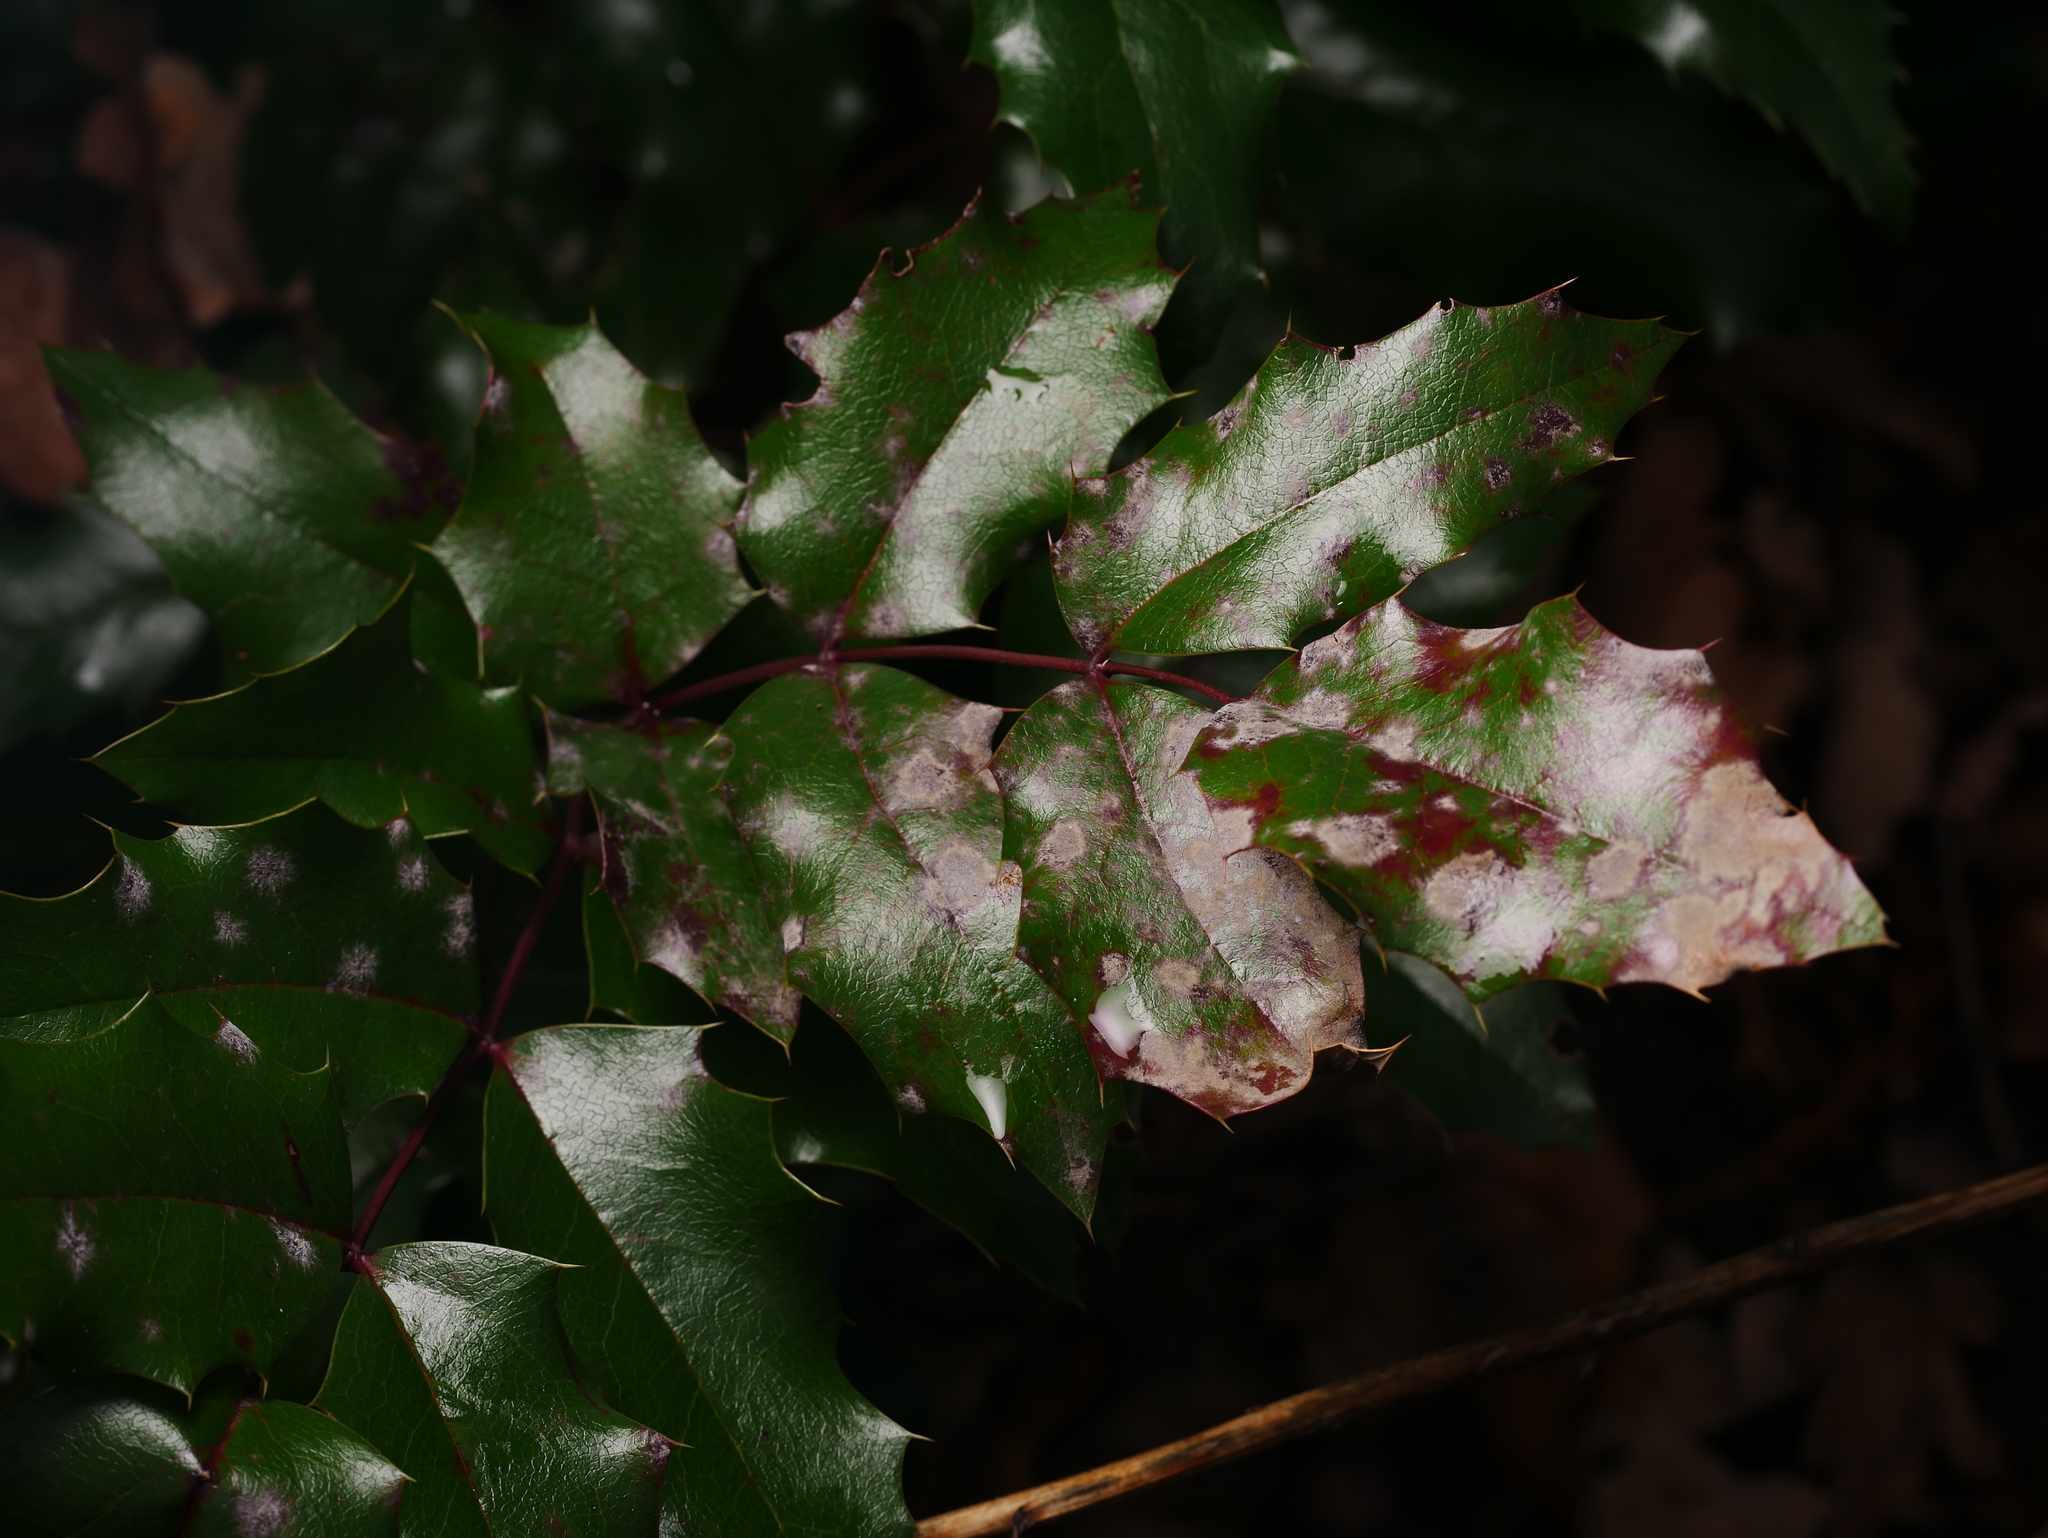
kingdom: Fungi
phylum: Ascomycota
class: Leotiomycetes
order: Helotiales
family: Erysiphaceae
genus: Erysiphe
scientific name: Erysiphe berberidis
